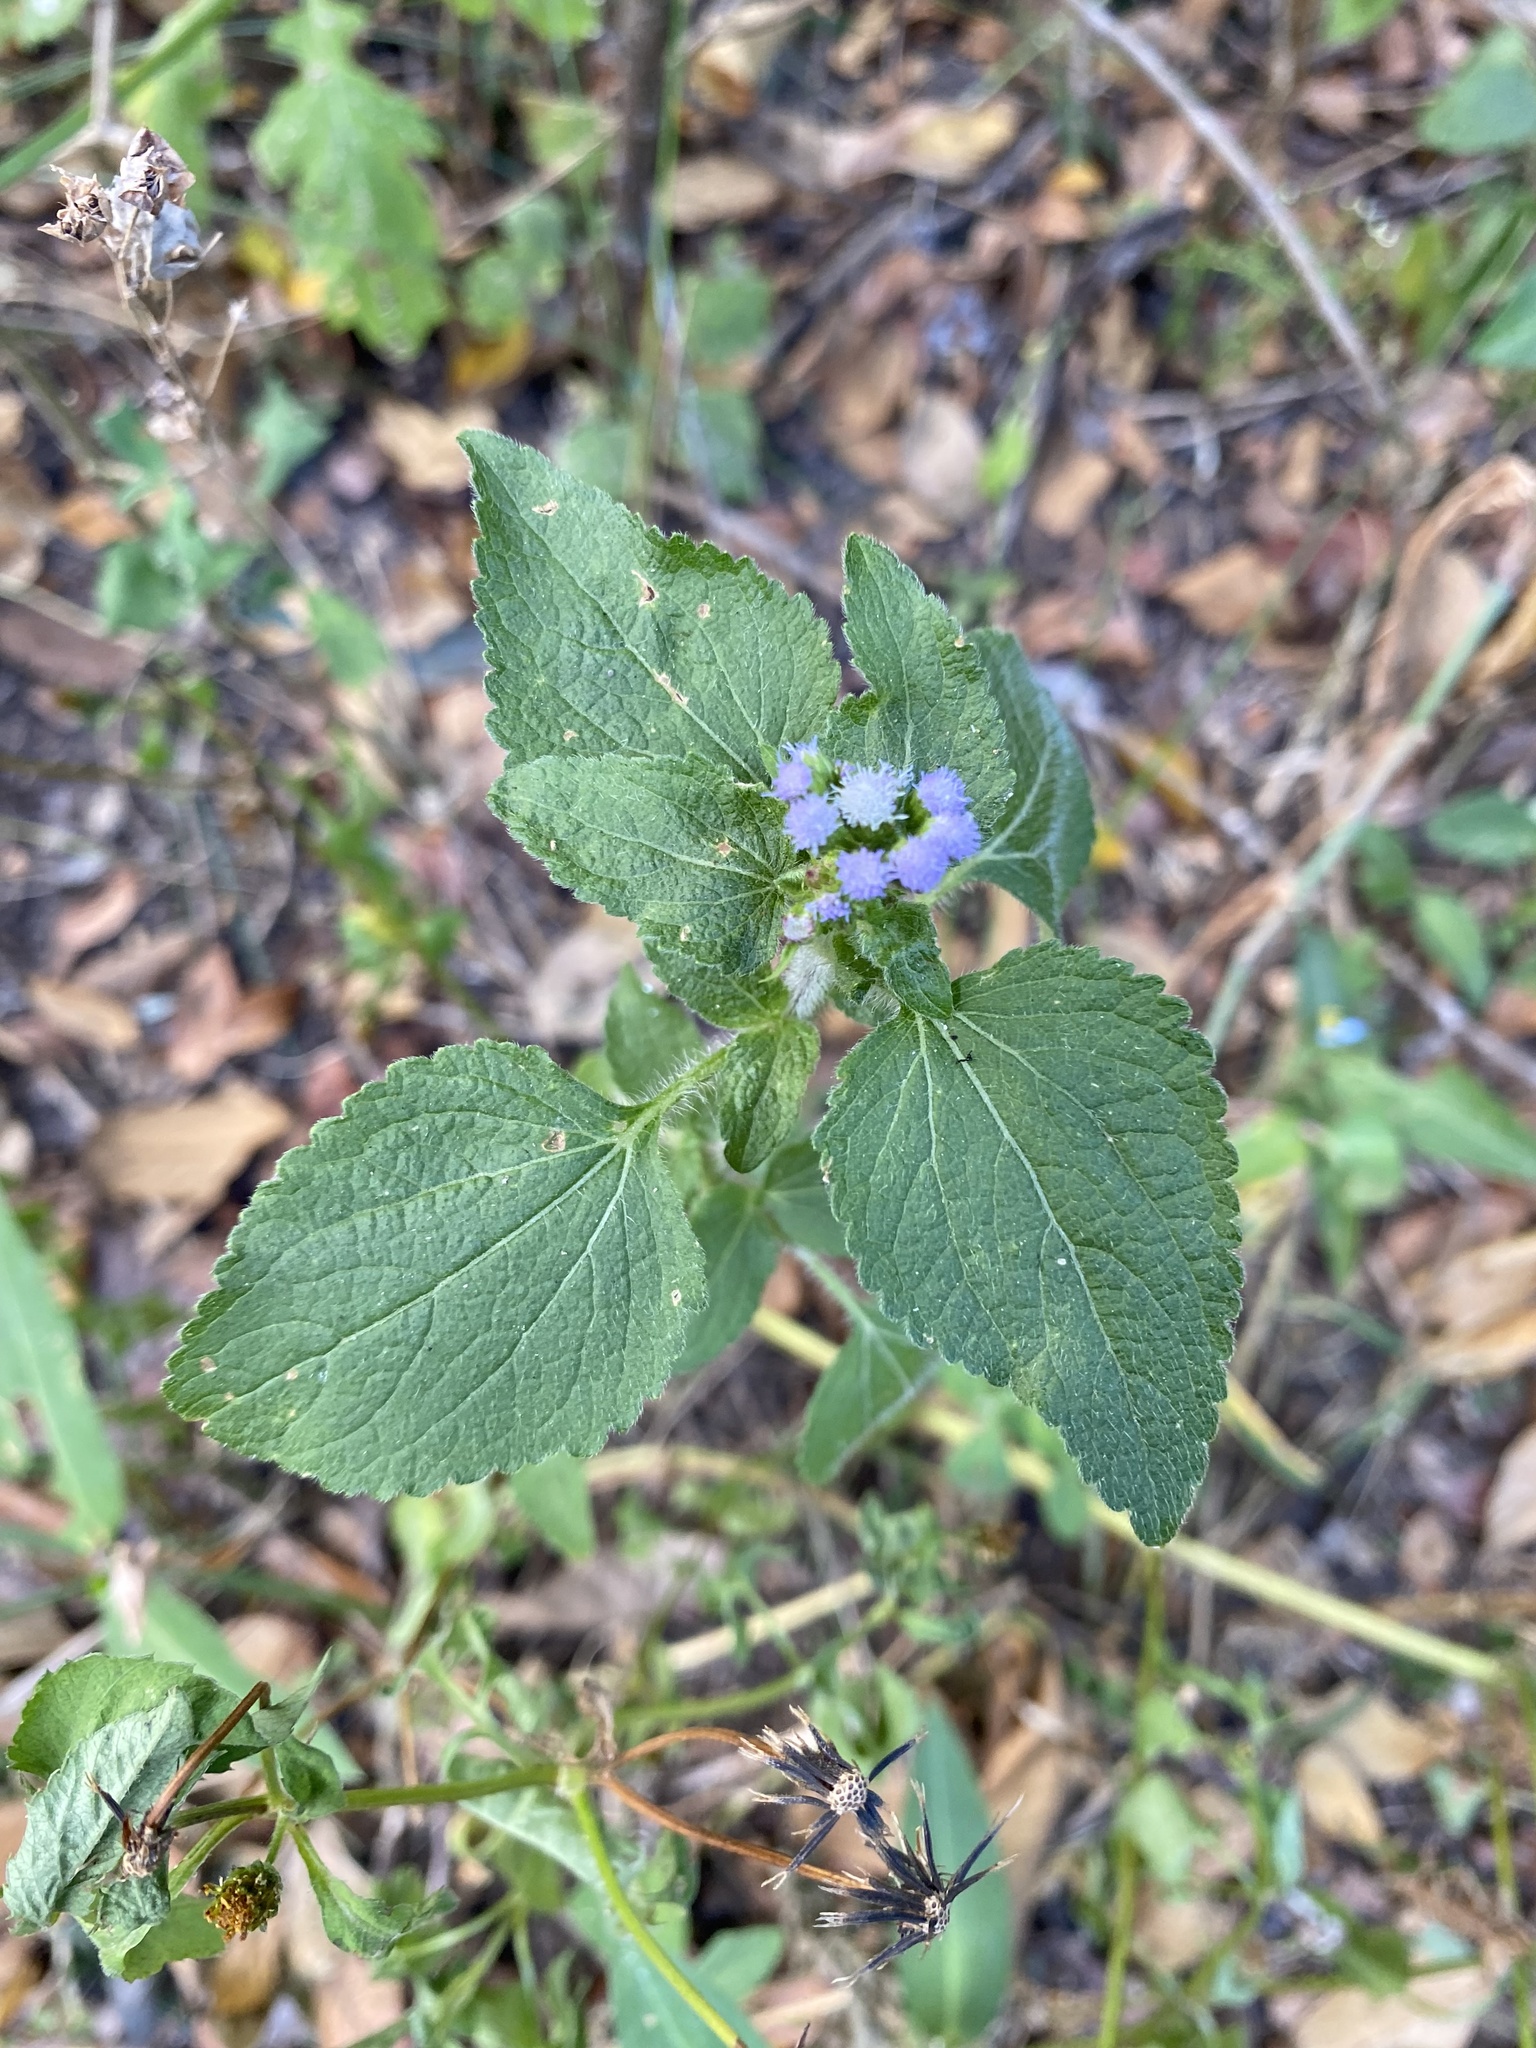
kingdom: Plantae
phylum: Tracheophyta
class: Magnoliopsida
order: Asterales
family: Asteraceae
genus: Ageratum
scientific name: Ageratum houstonianum
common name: Bluemink
